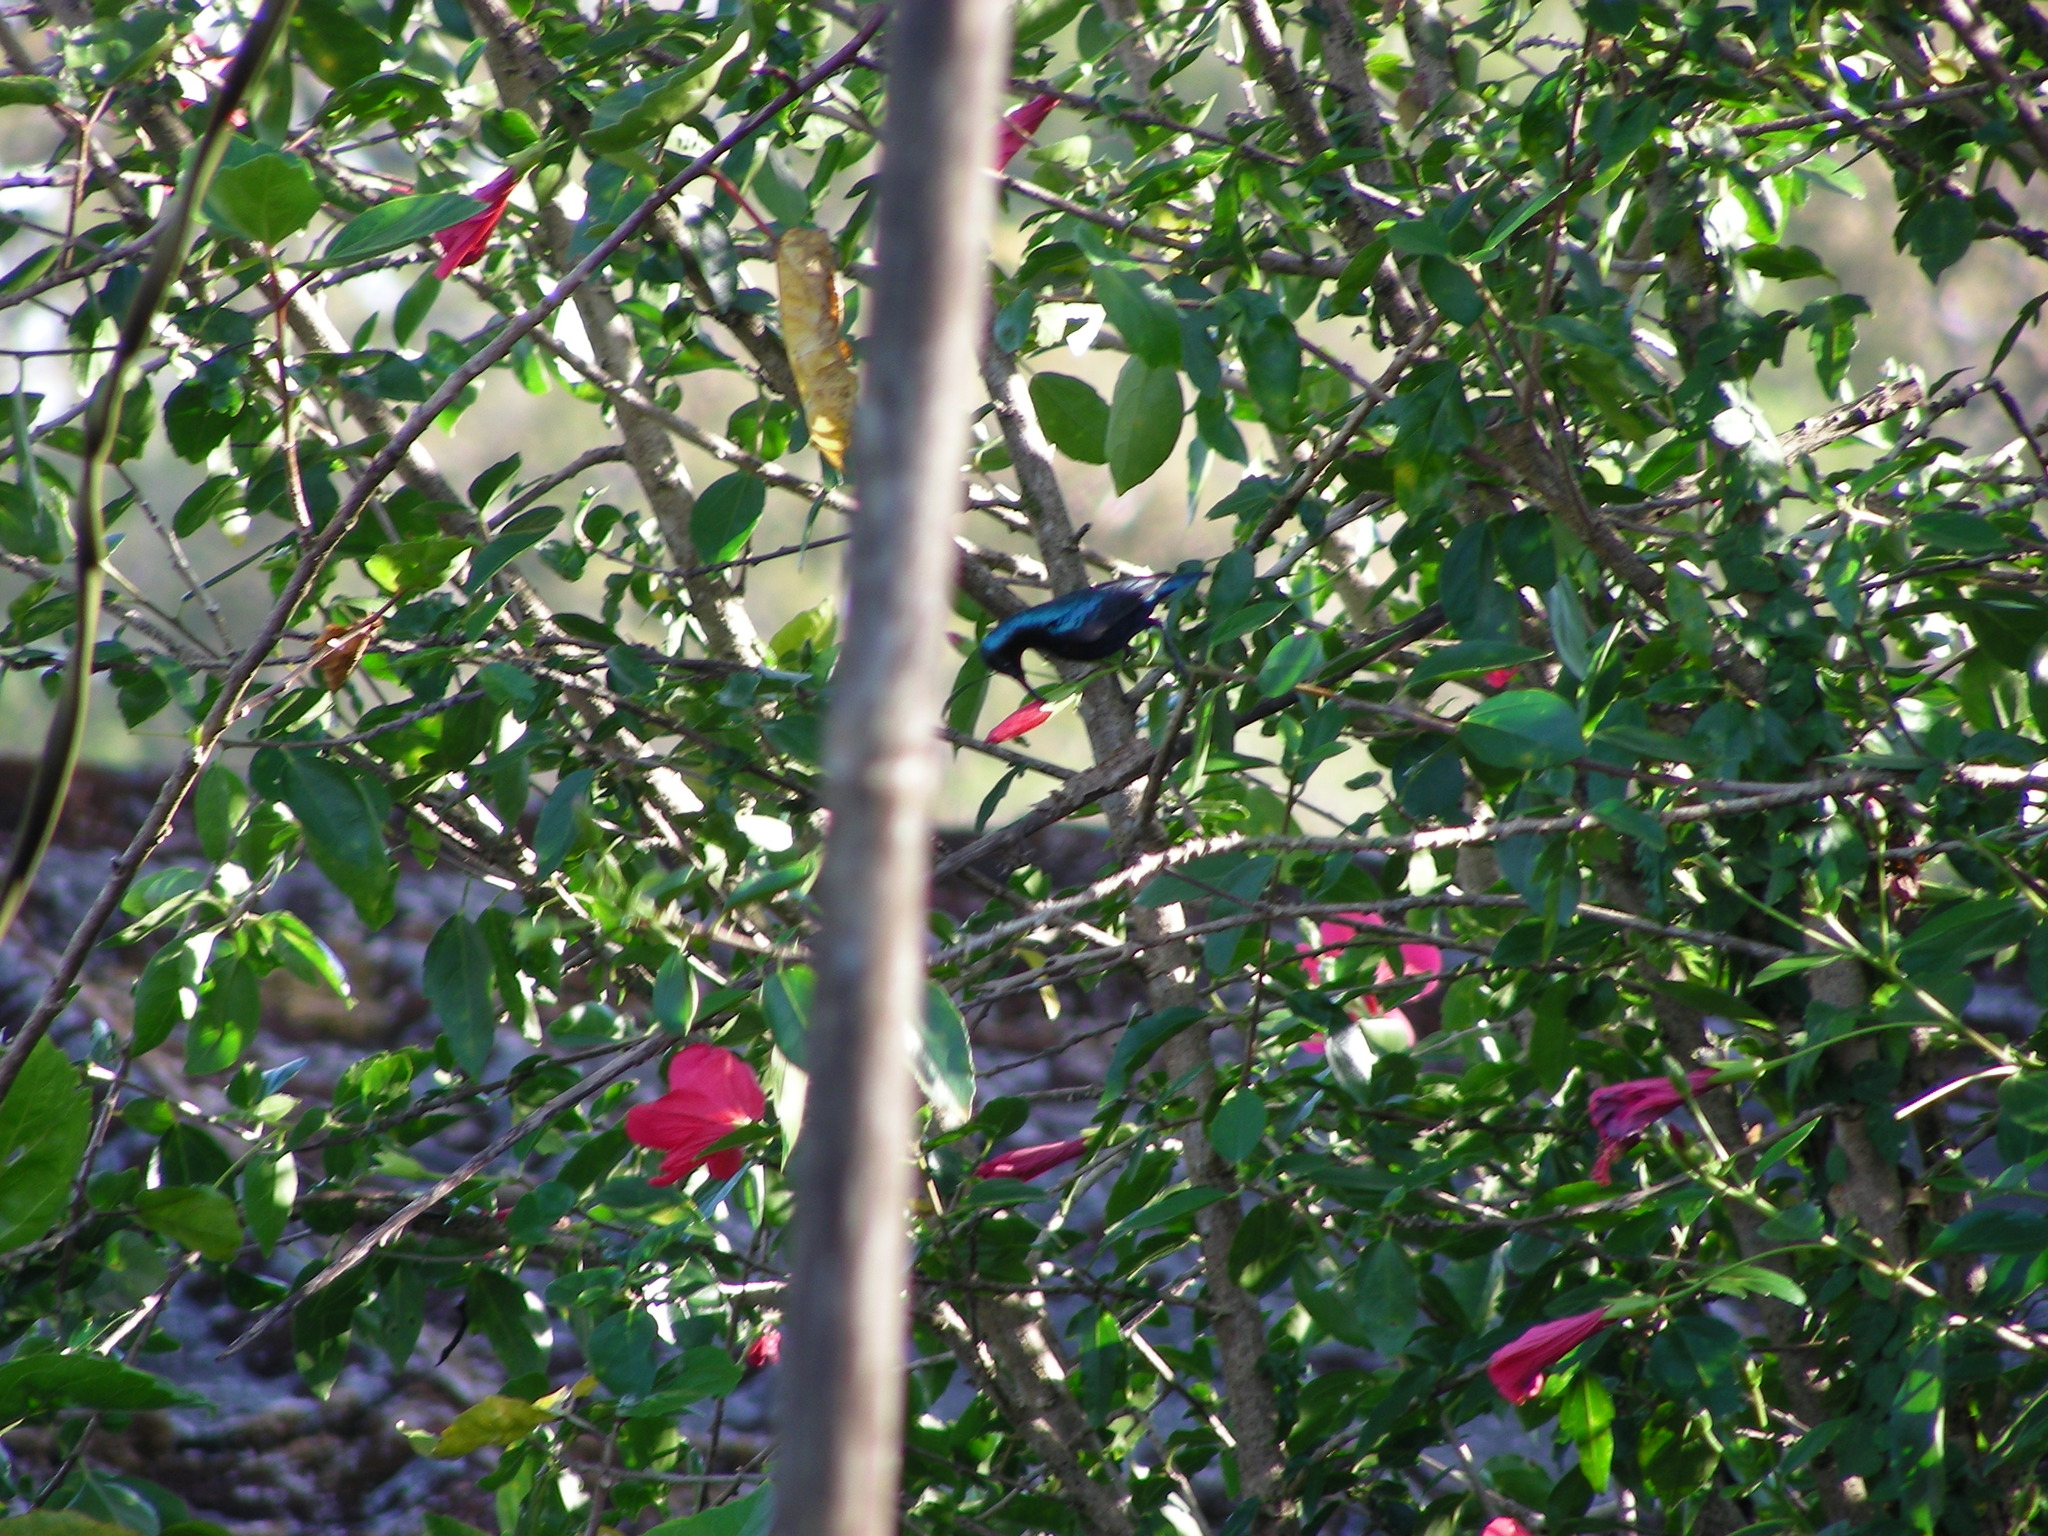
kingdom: Animalia
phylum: Chordata
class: Aves
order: Passeriformes
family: Nectariniidae
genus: Cinnyris
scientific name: Cinnyris asiaticus
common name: Purple sunbird
